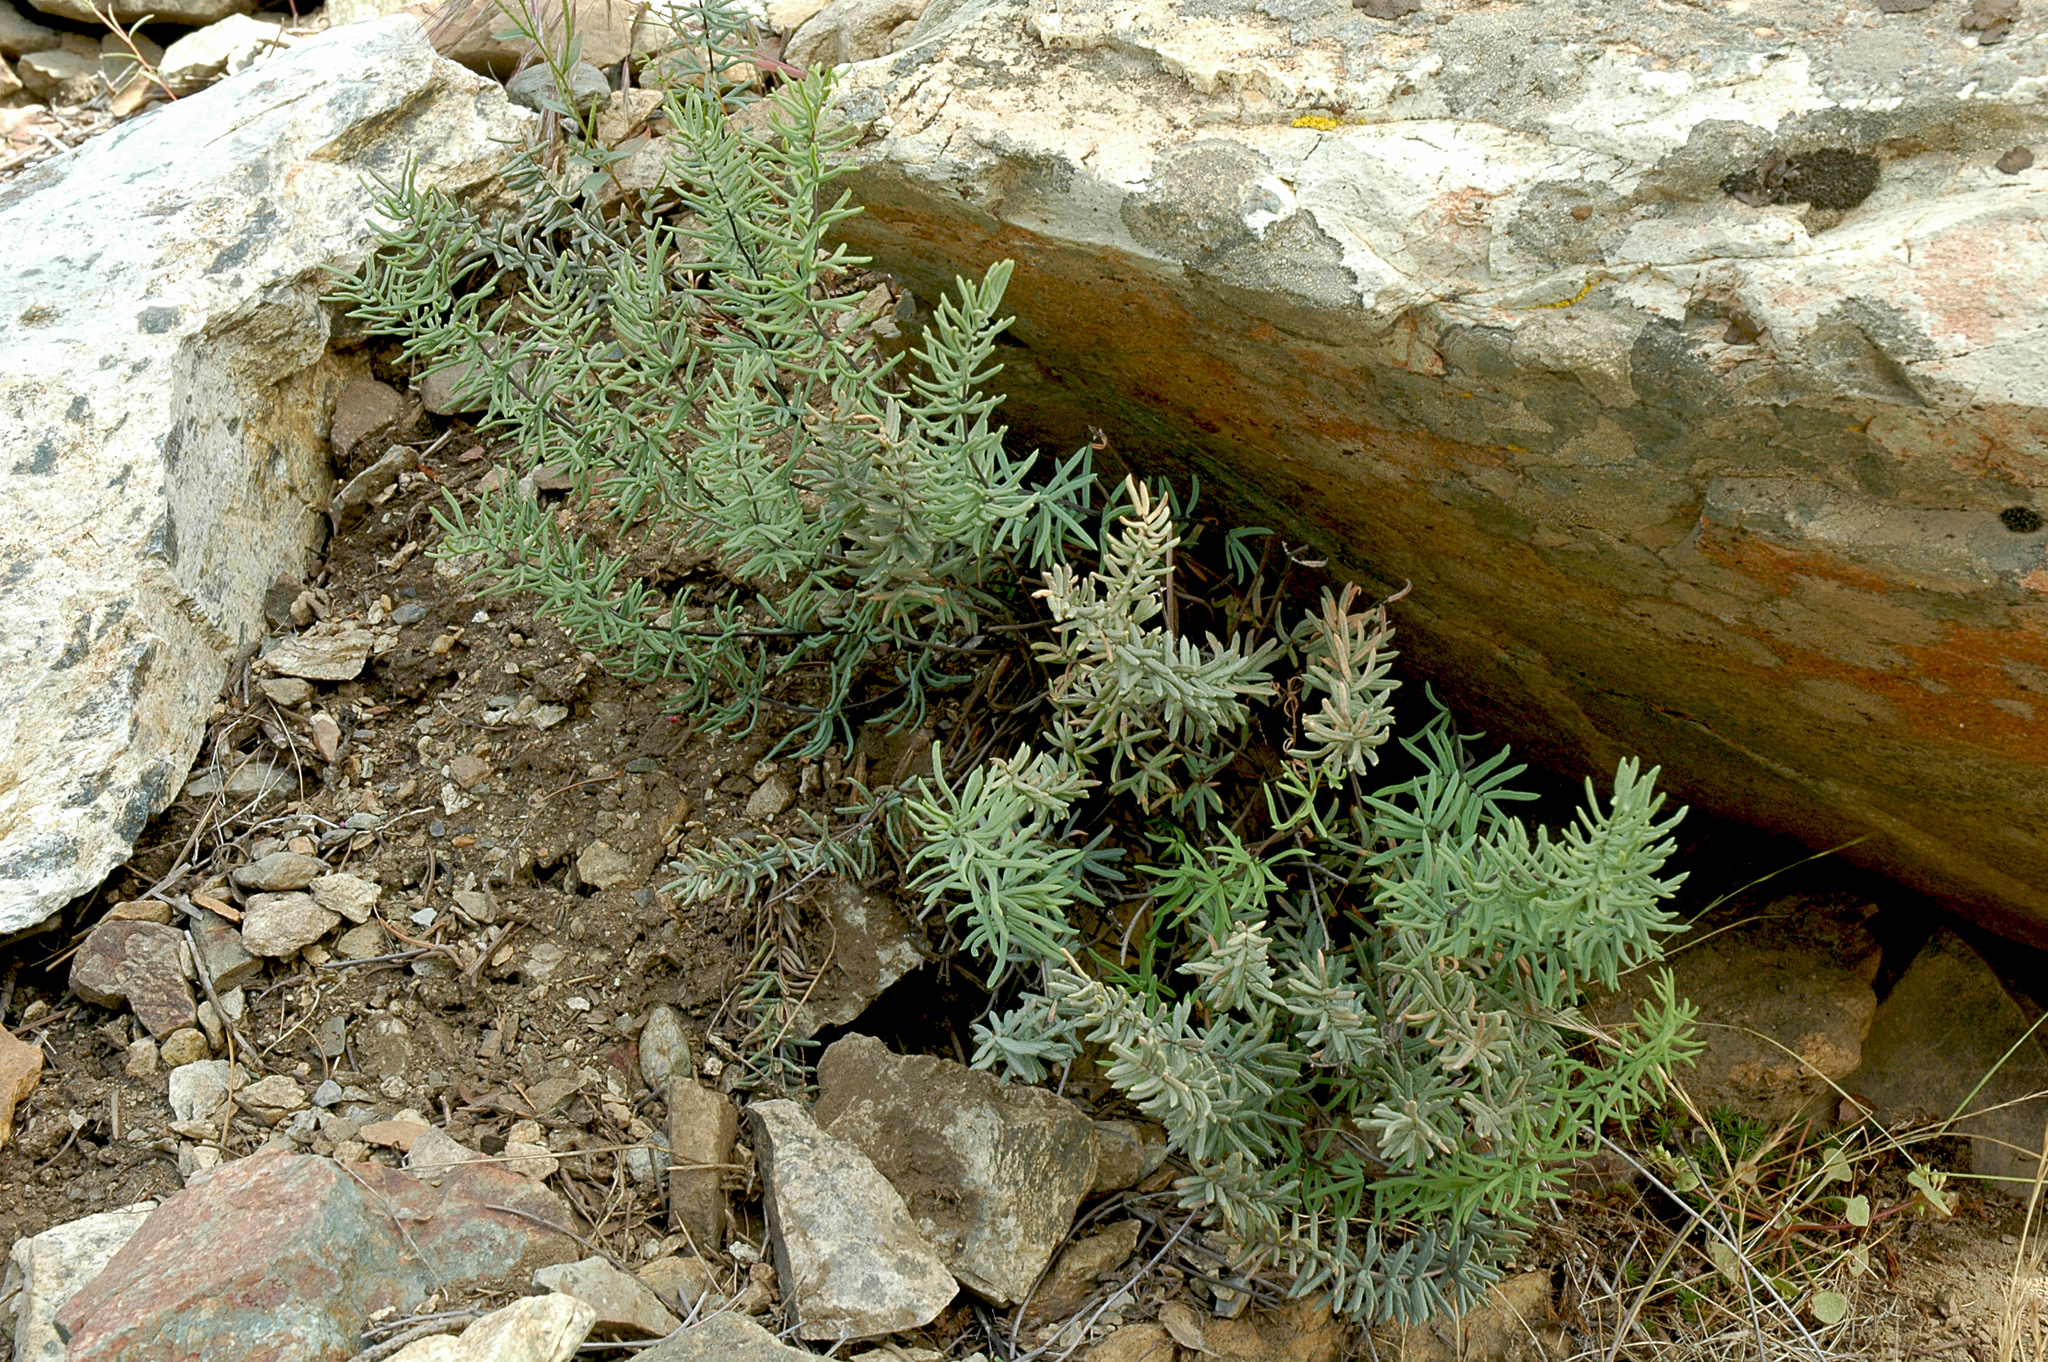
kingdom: Plantae
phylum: Tracheophyta
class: Polypodiopsida
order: Polypodiales
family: Pteridaceae
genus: Pellaea
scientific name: Pellaea brachyptera
